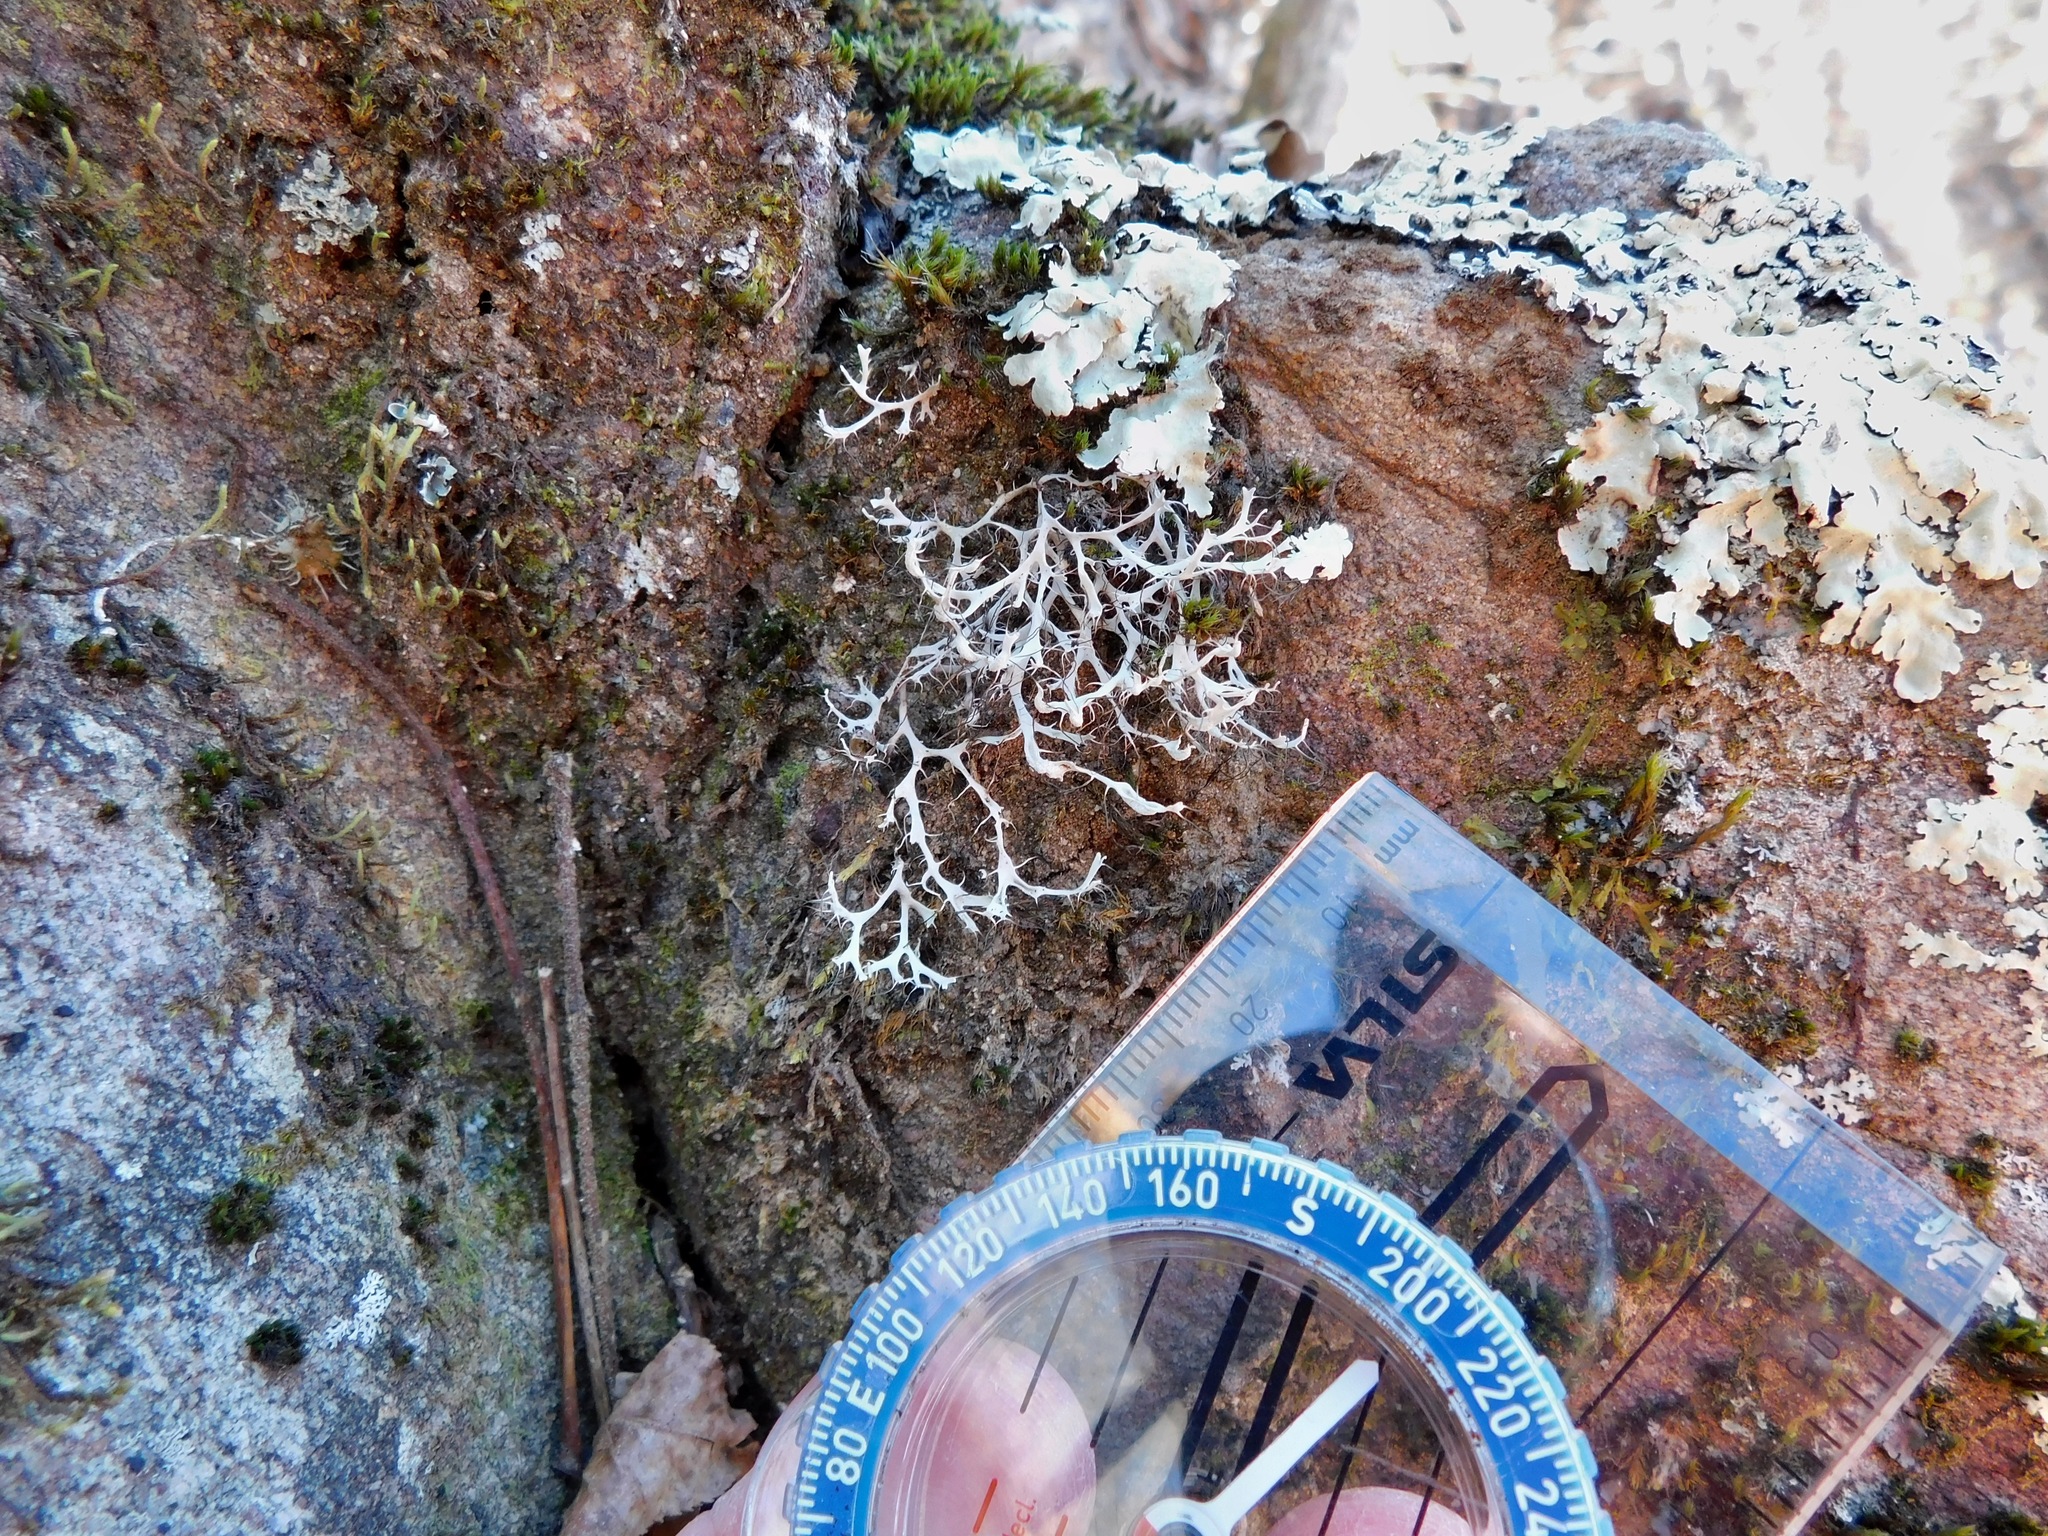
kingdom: Fungi
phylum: Ascomycota
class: Lecanoromycetes
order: Caliciales
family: Physciaceae
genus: Leucodermia
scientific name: Leucodermia leucomelos
